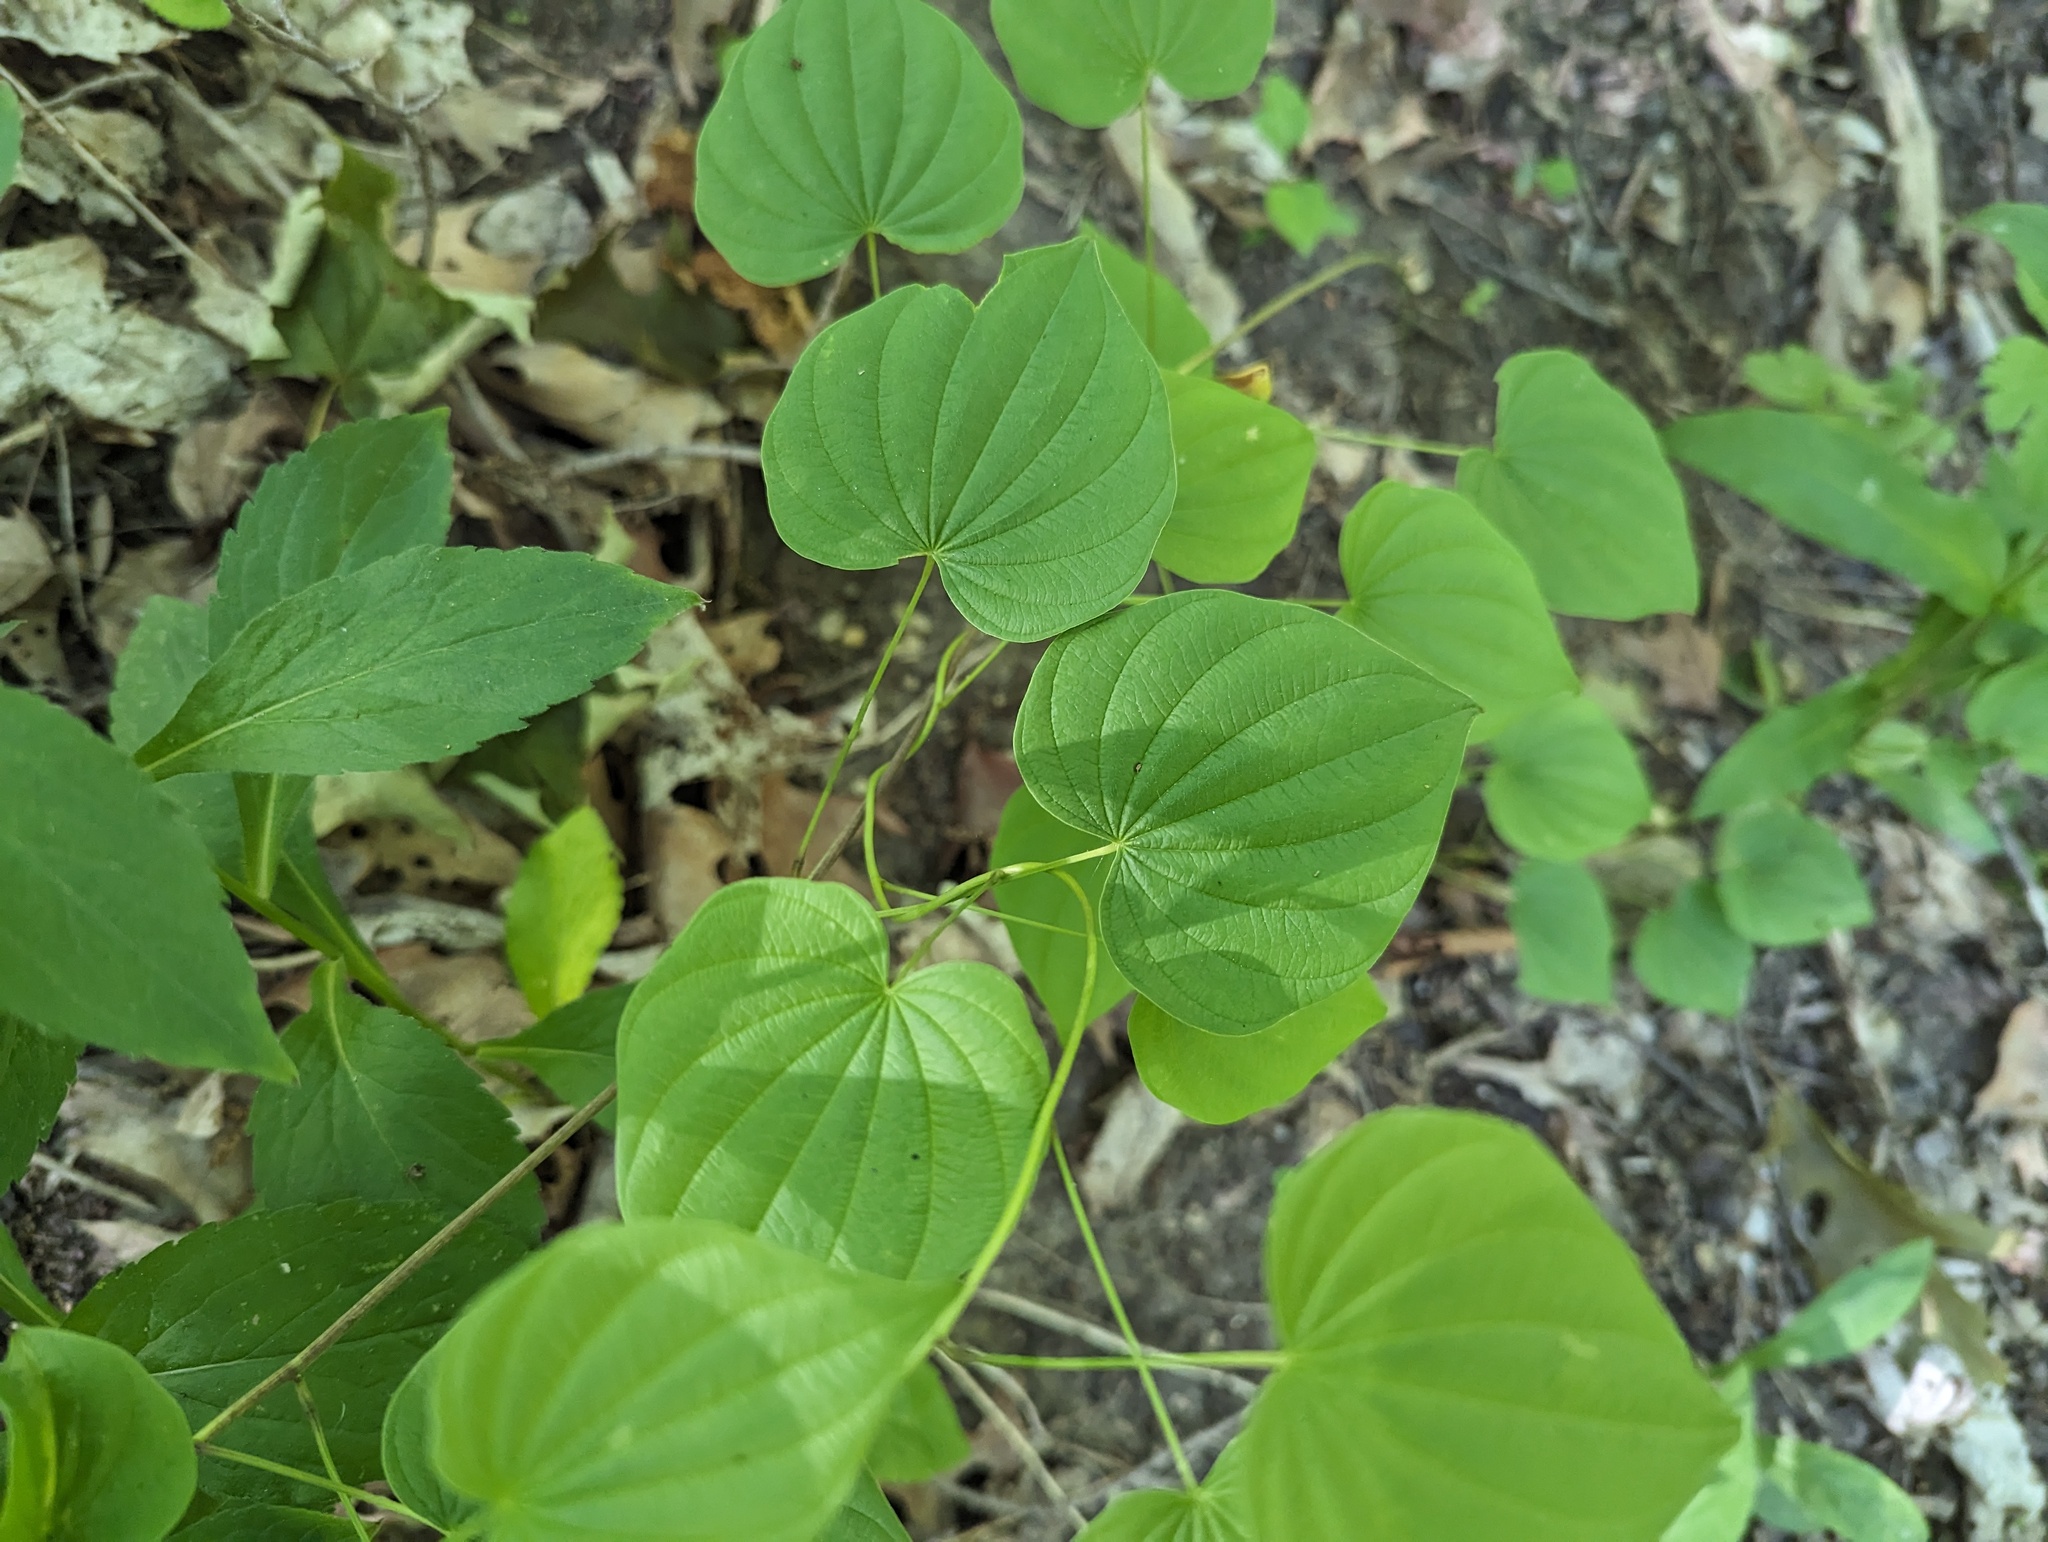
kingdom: Plantae
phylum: Tracheophyta
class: Liliopsida
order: Dioscoreales
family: Dioscoreaceae
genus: Dioscorea
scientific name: Dioscorea villosa
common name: Wild yam
